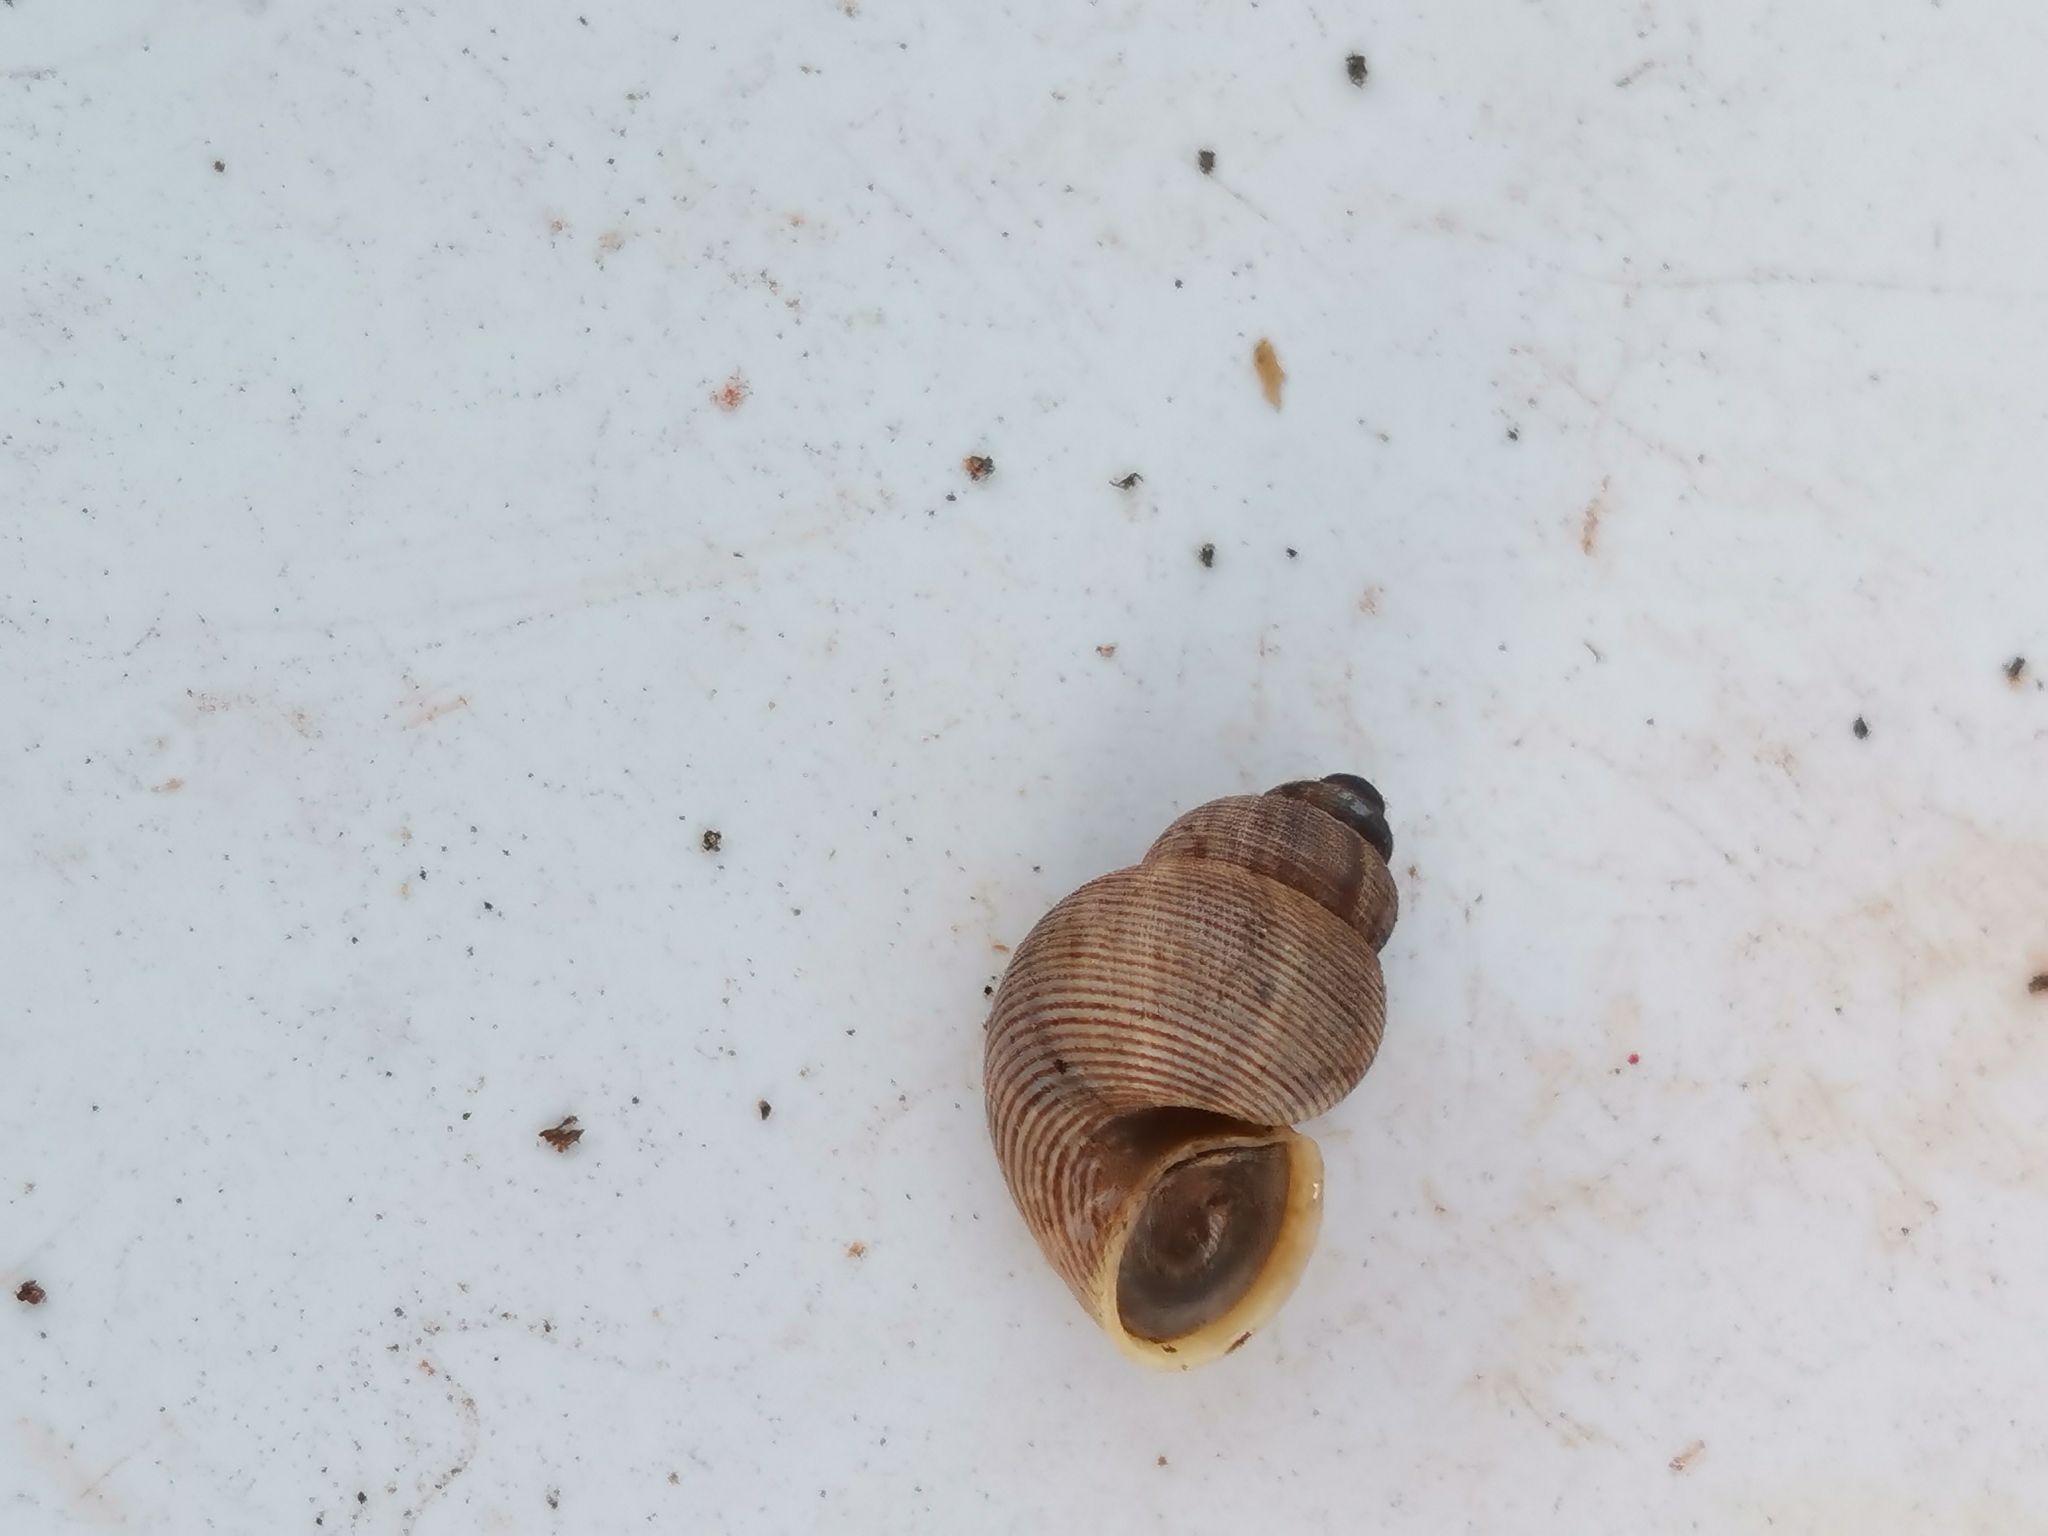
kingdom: Animalia
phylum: Mollusca
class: Gastropoda
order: Littorinimorpha
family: Pomatiidae
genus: Pomatias
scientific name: Pomatias elegans
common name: Red-mouthed snail
